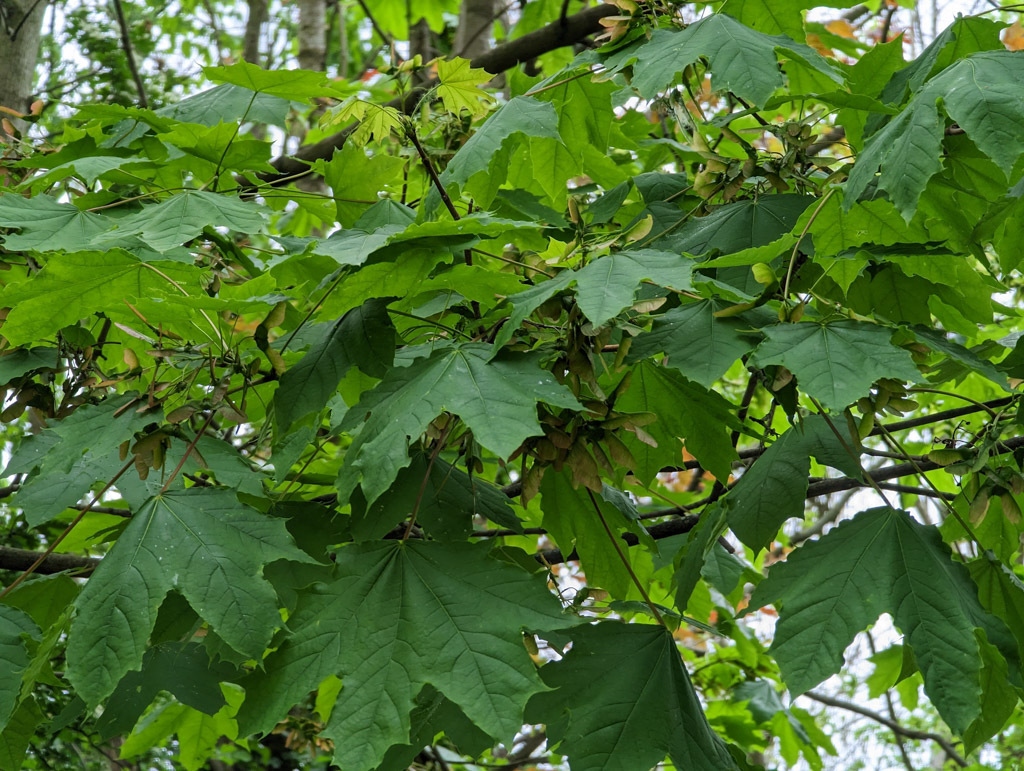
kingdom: Plantae
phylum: Tracheophyta
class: Magnoliopsida
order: Sapindales
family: Sapindaceae
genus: Acer
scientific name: Acer platanoides
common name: Norway maple
